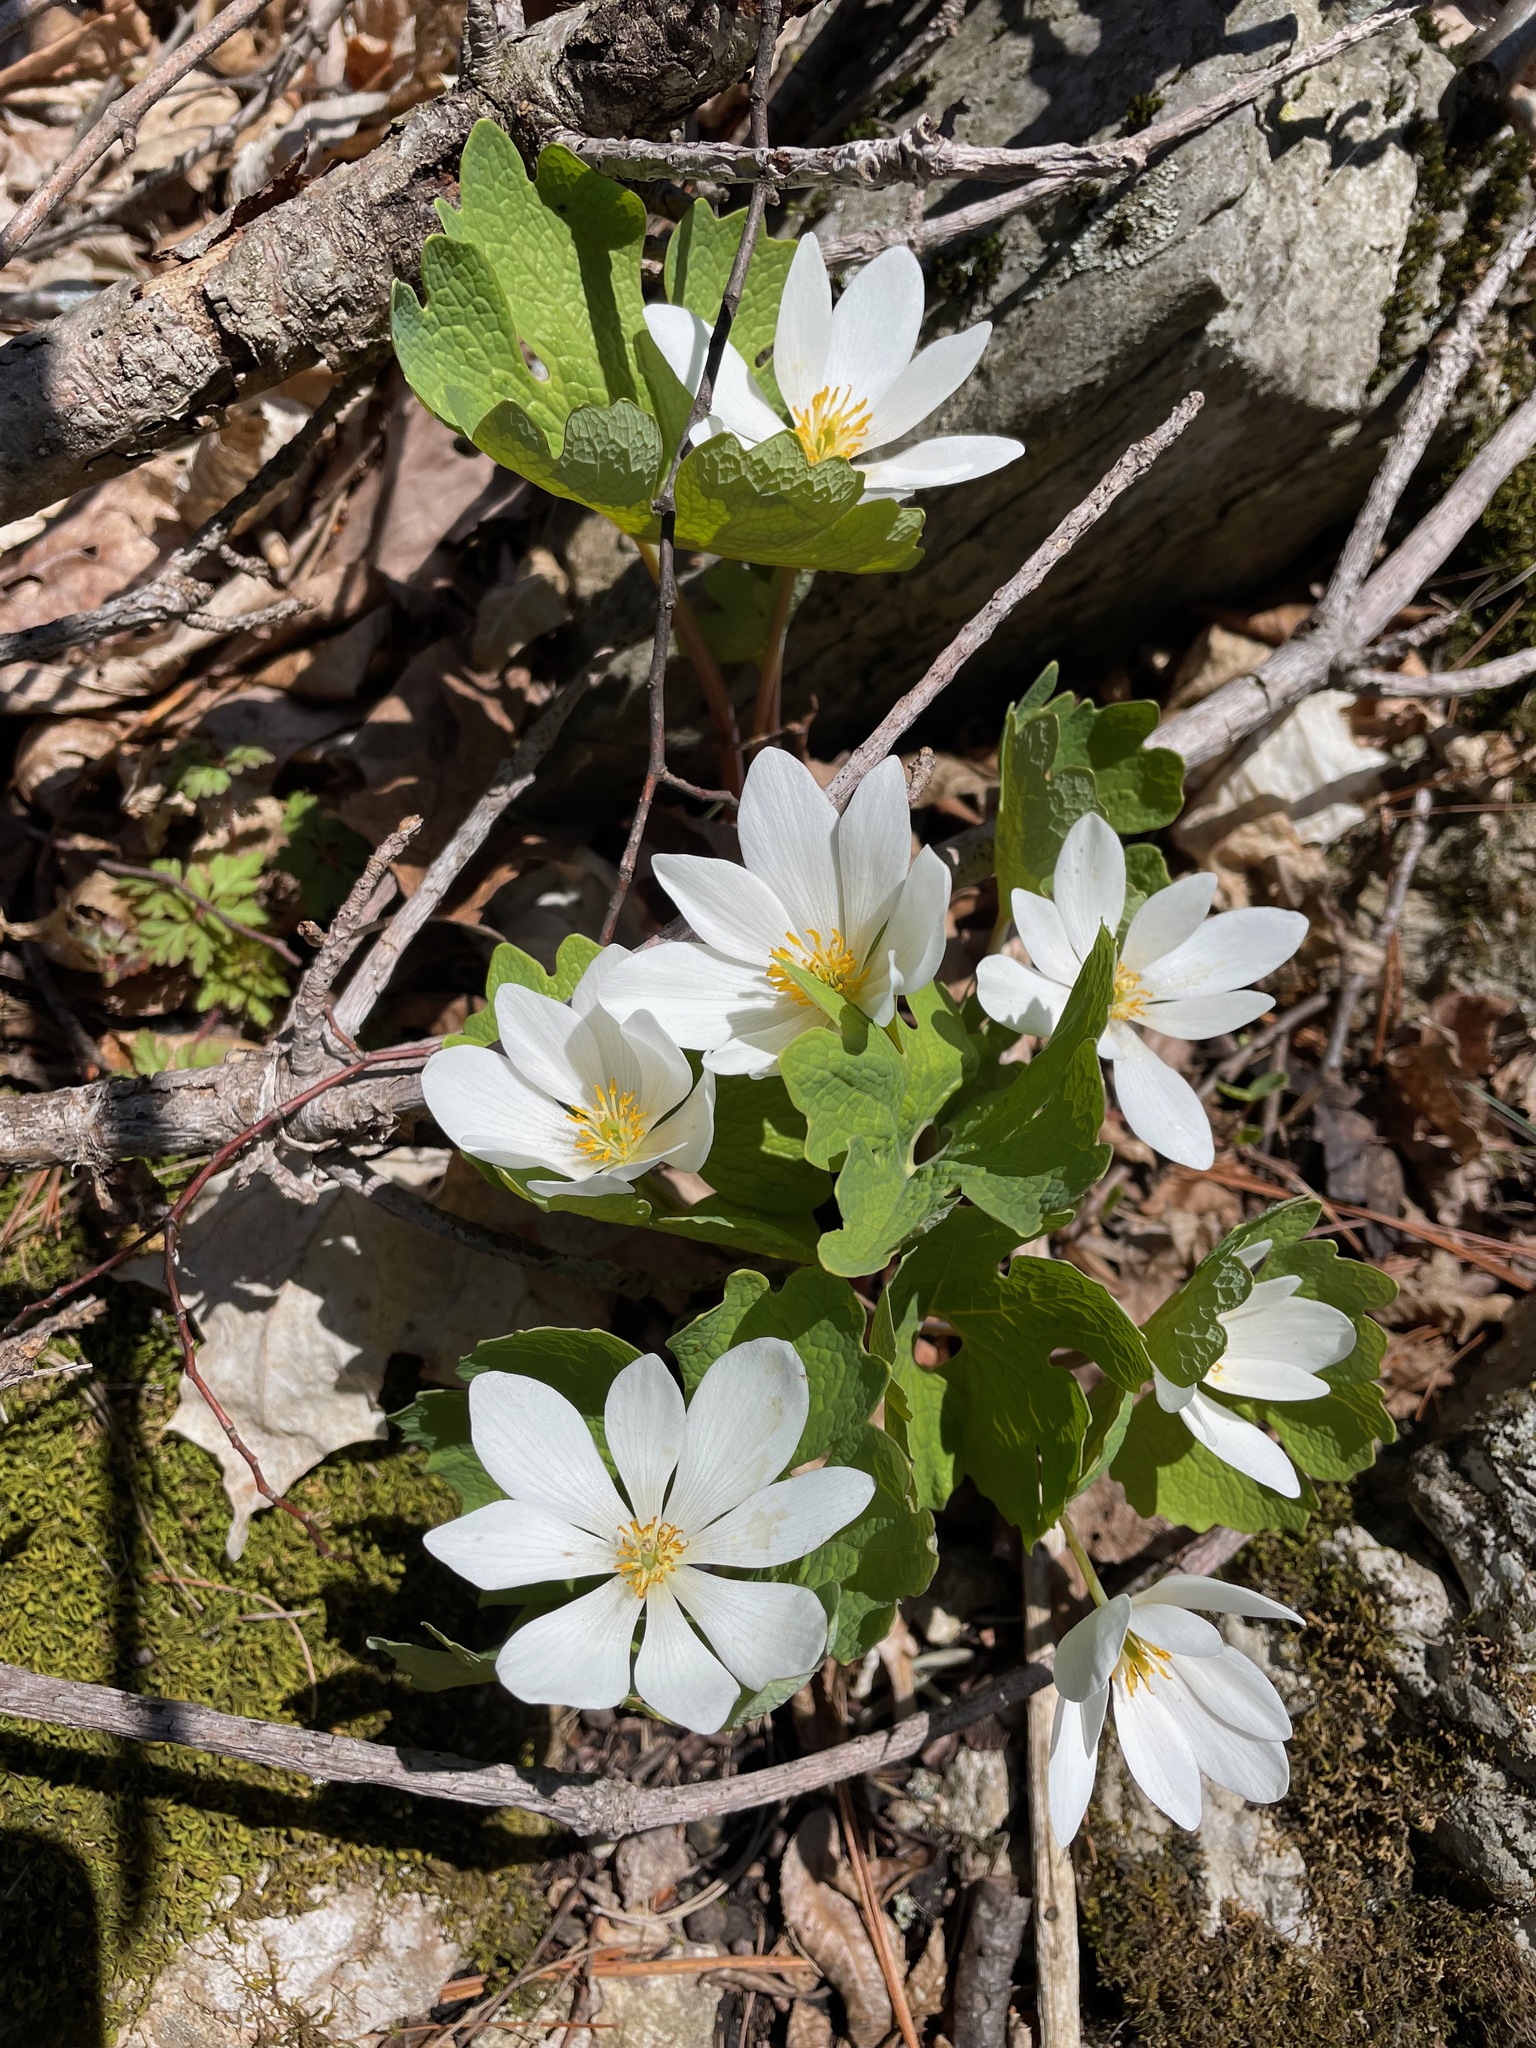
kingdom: Plantae
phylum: Tracheophyta
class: Magnoliopsida
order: Ranunculales
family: Papaveraceae
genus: Sanguinaria
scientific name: Sanguinaria canadensis
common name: Bloodroot
